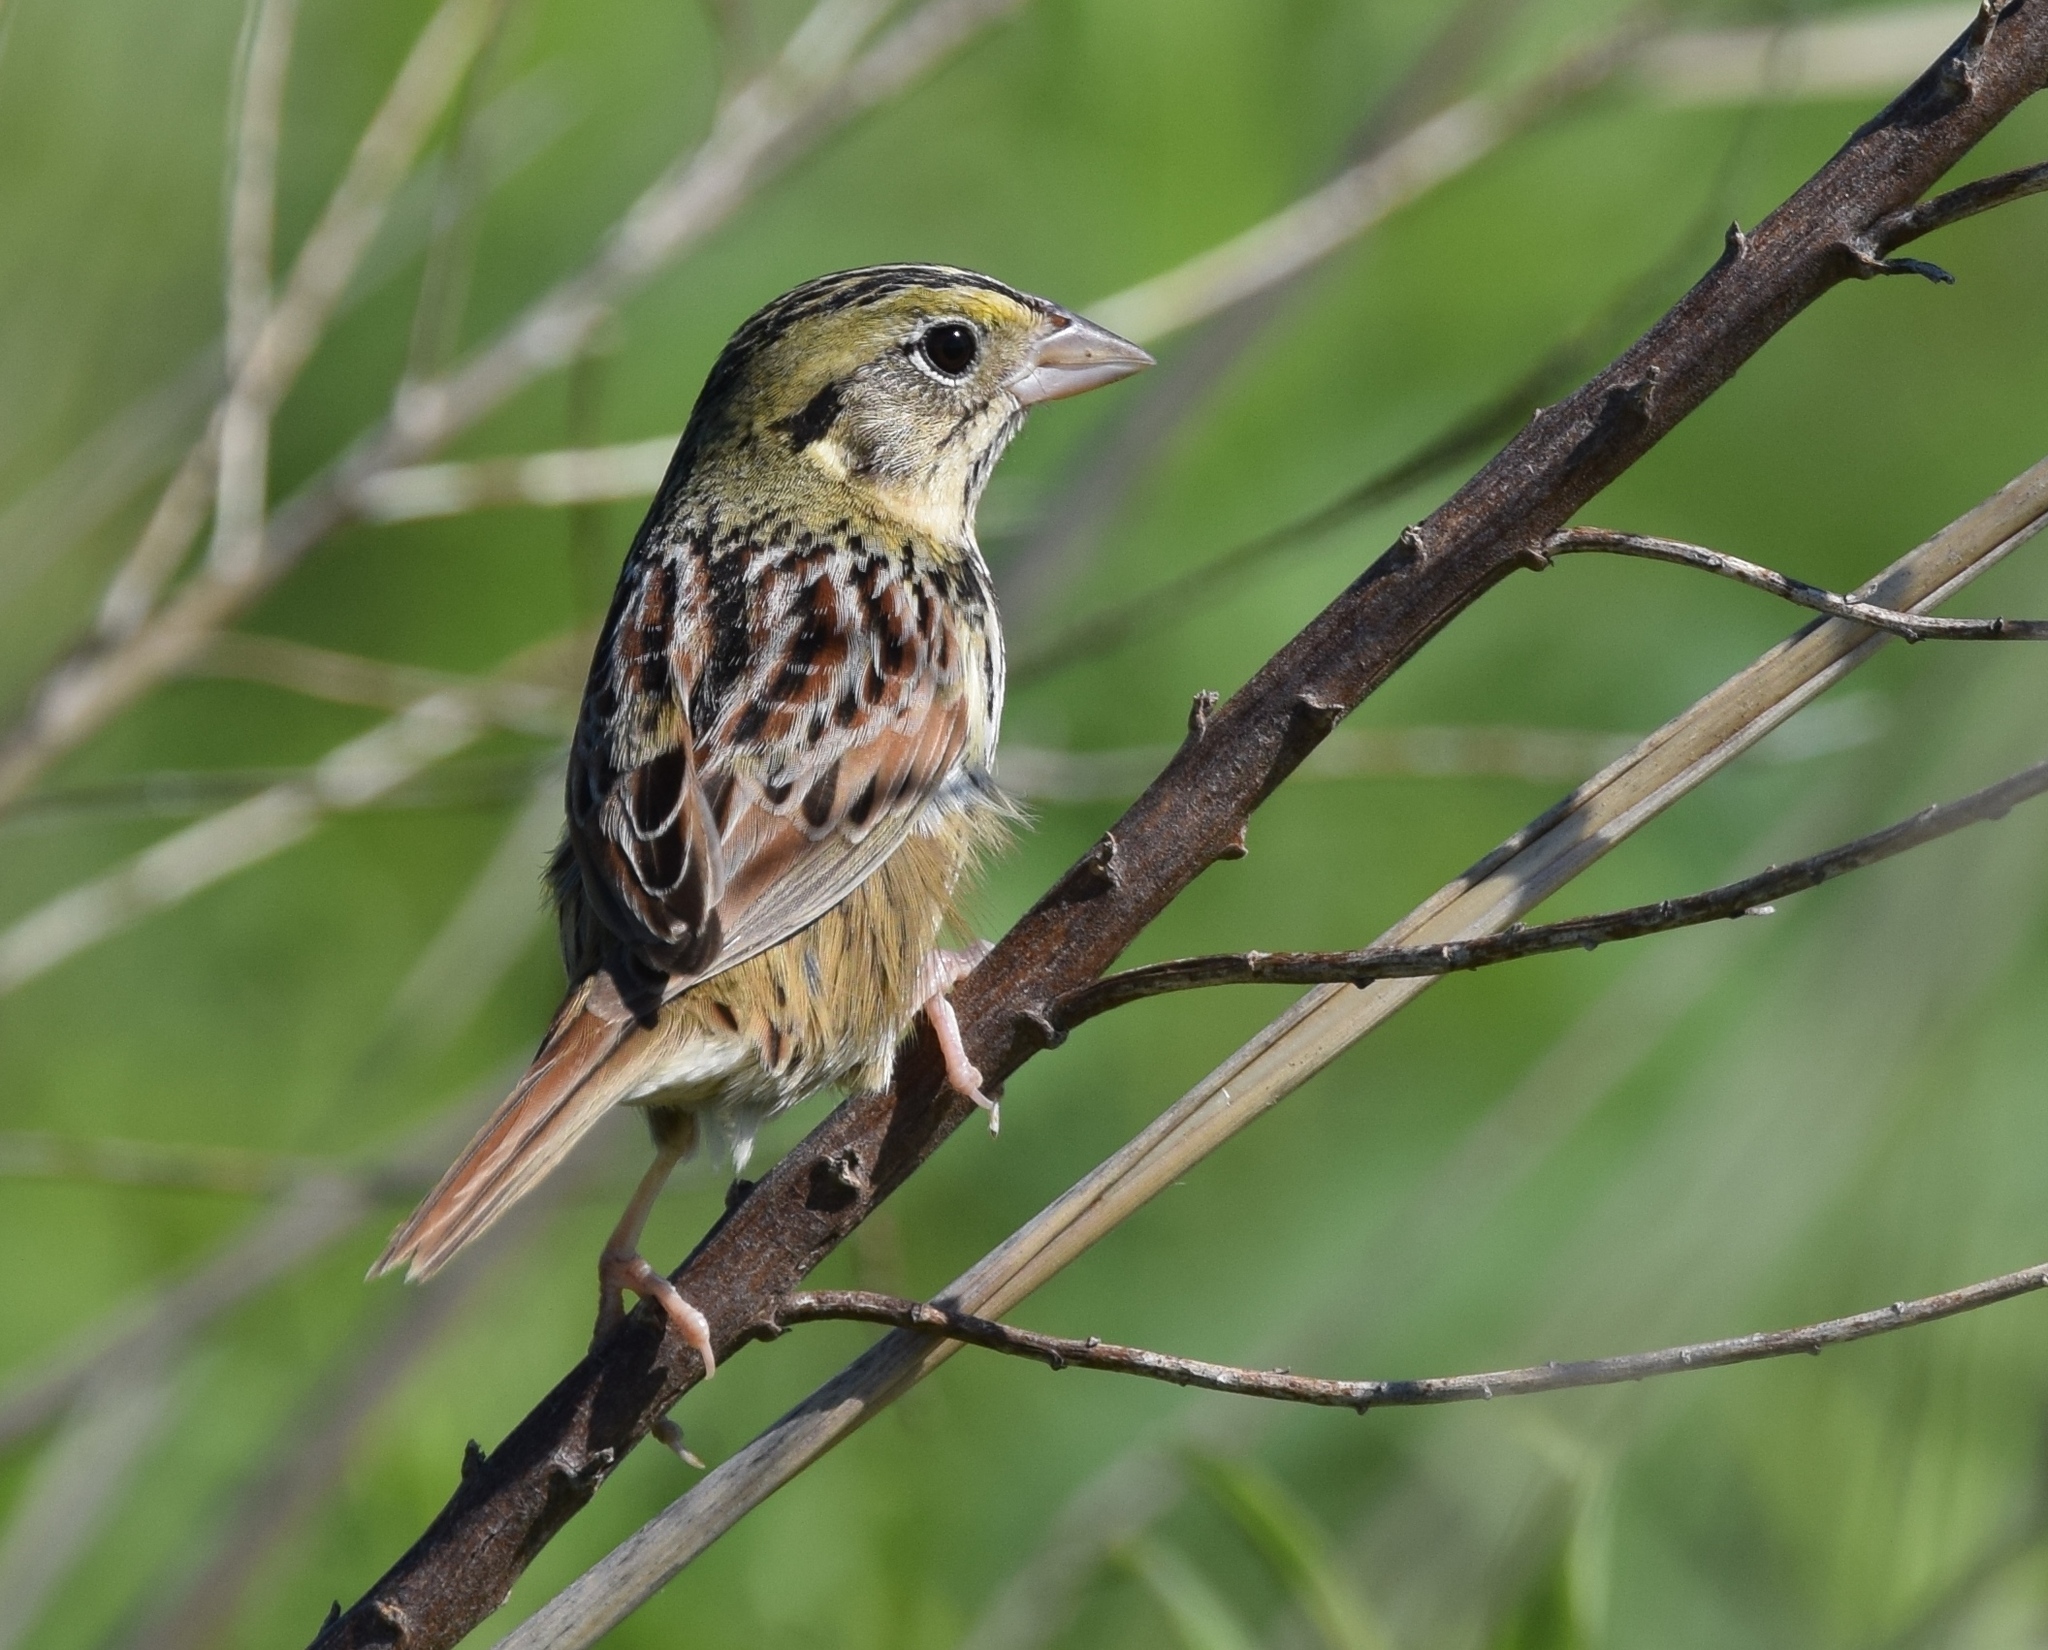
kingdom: Animalia
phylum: Chordata
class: Aves
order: Passeriformes
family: Passerellidae
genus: Centronyx
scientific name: Centronyx henslowii
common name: Henslow's sparrow
